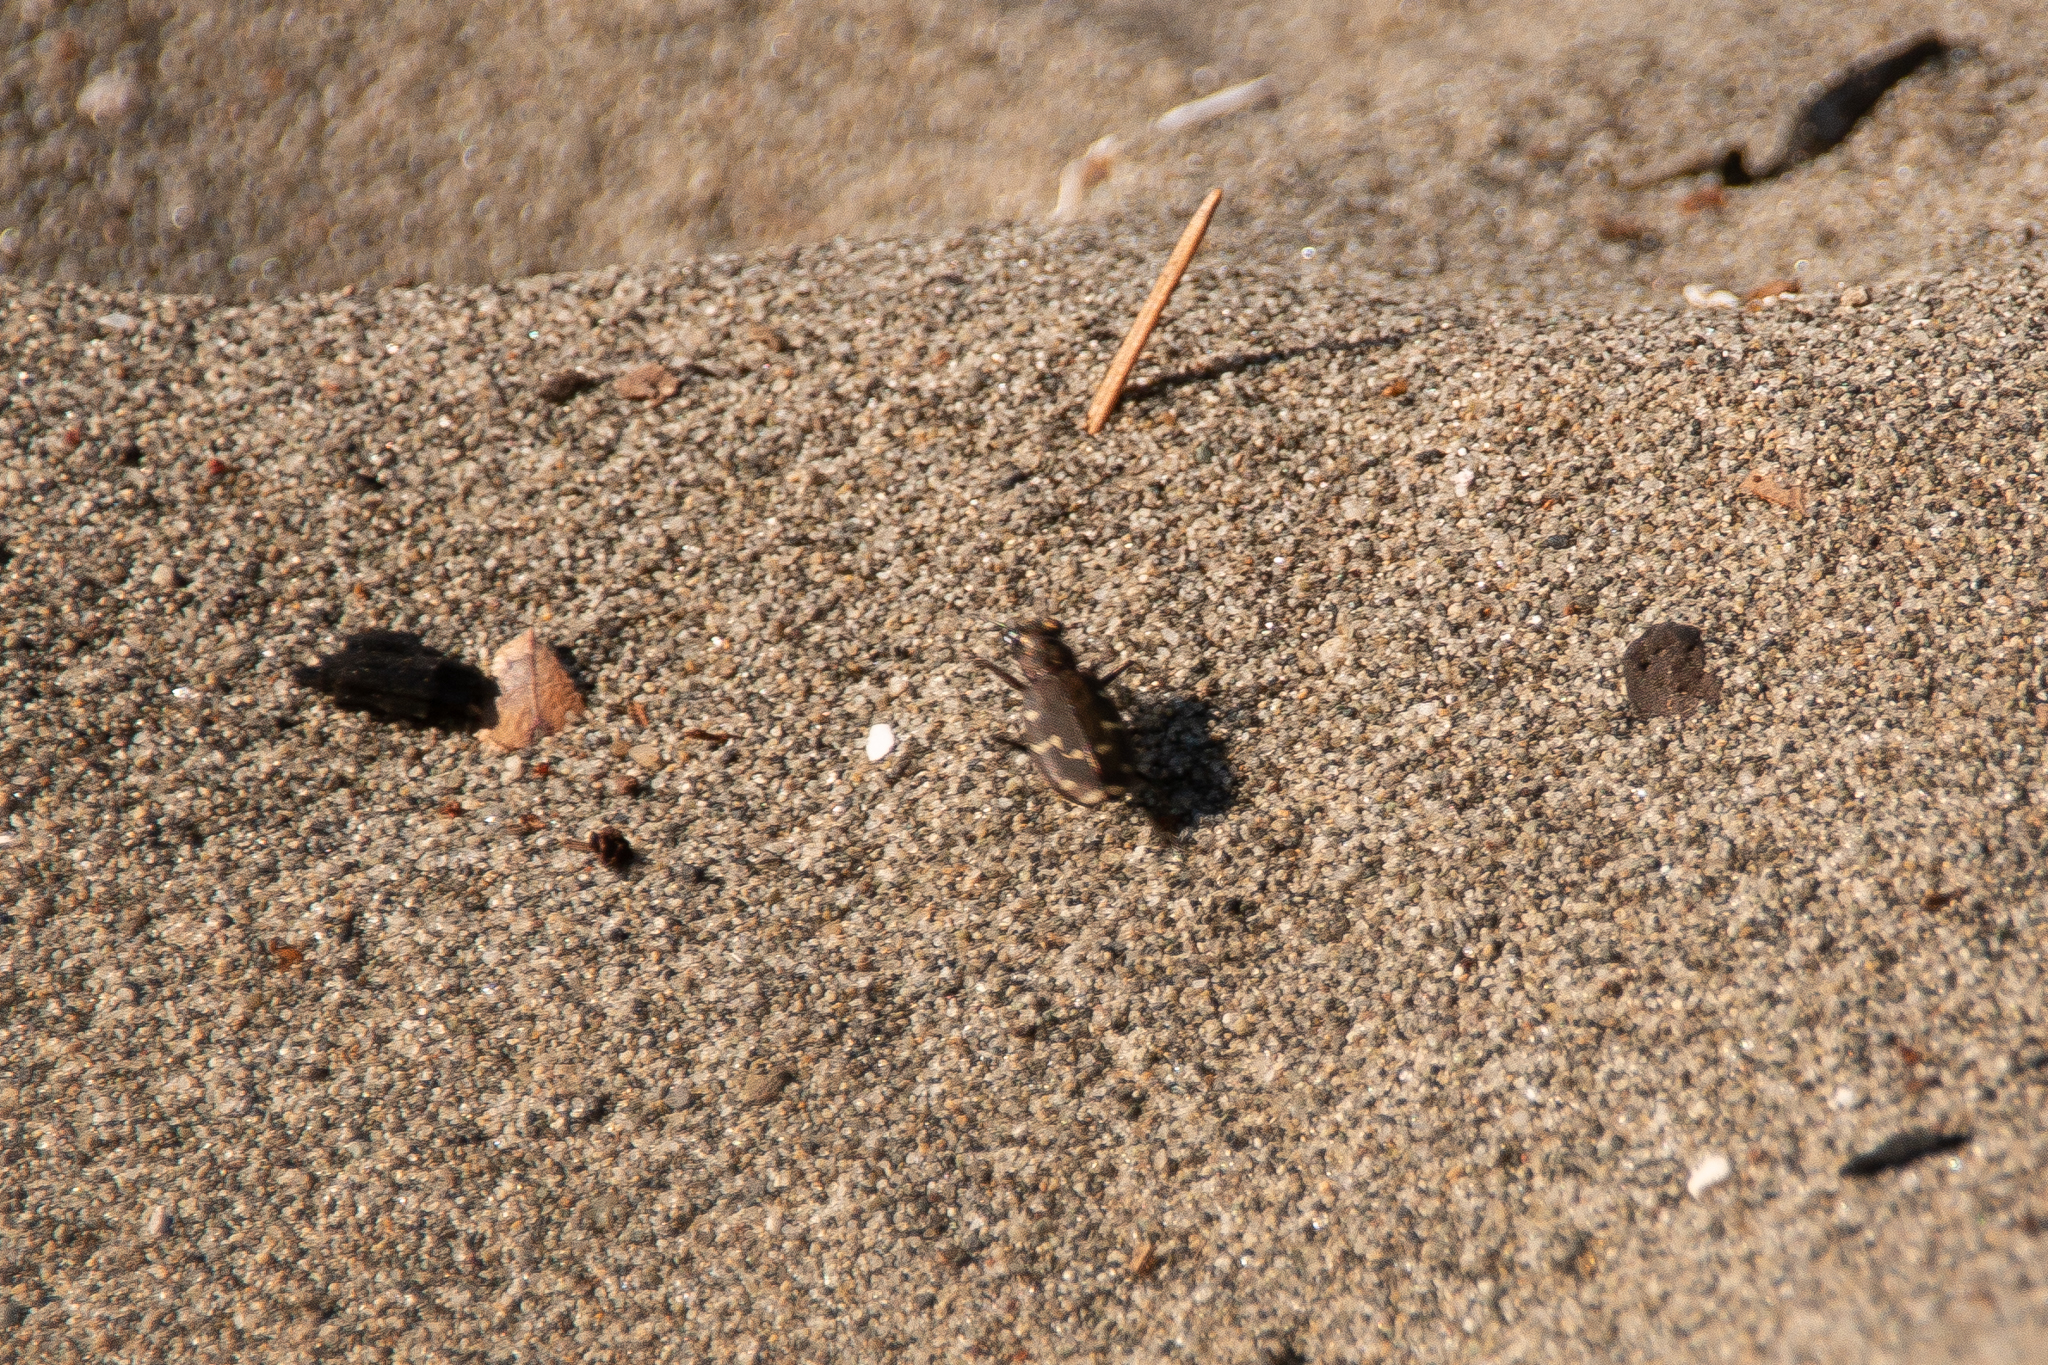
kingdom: Animalia
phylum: Arthropoda
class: Insecta
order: Coleoptera
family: Carabidae
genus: Cicindela
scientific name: Cicindela oregona
